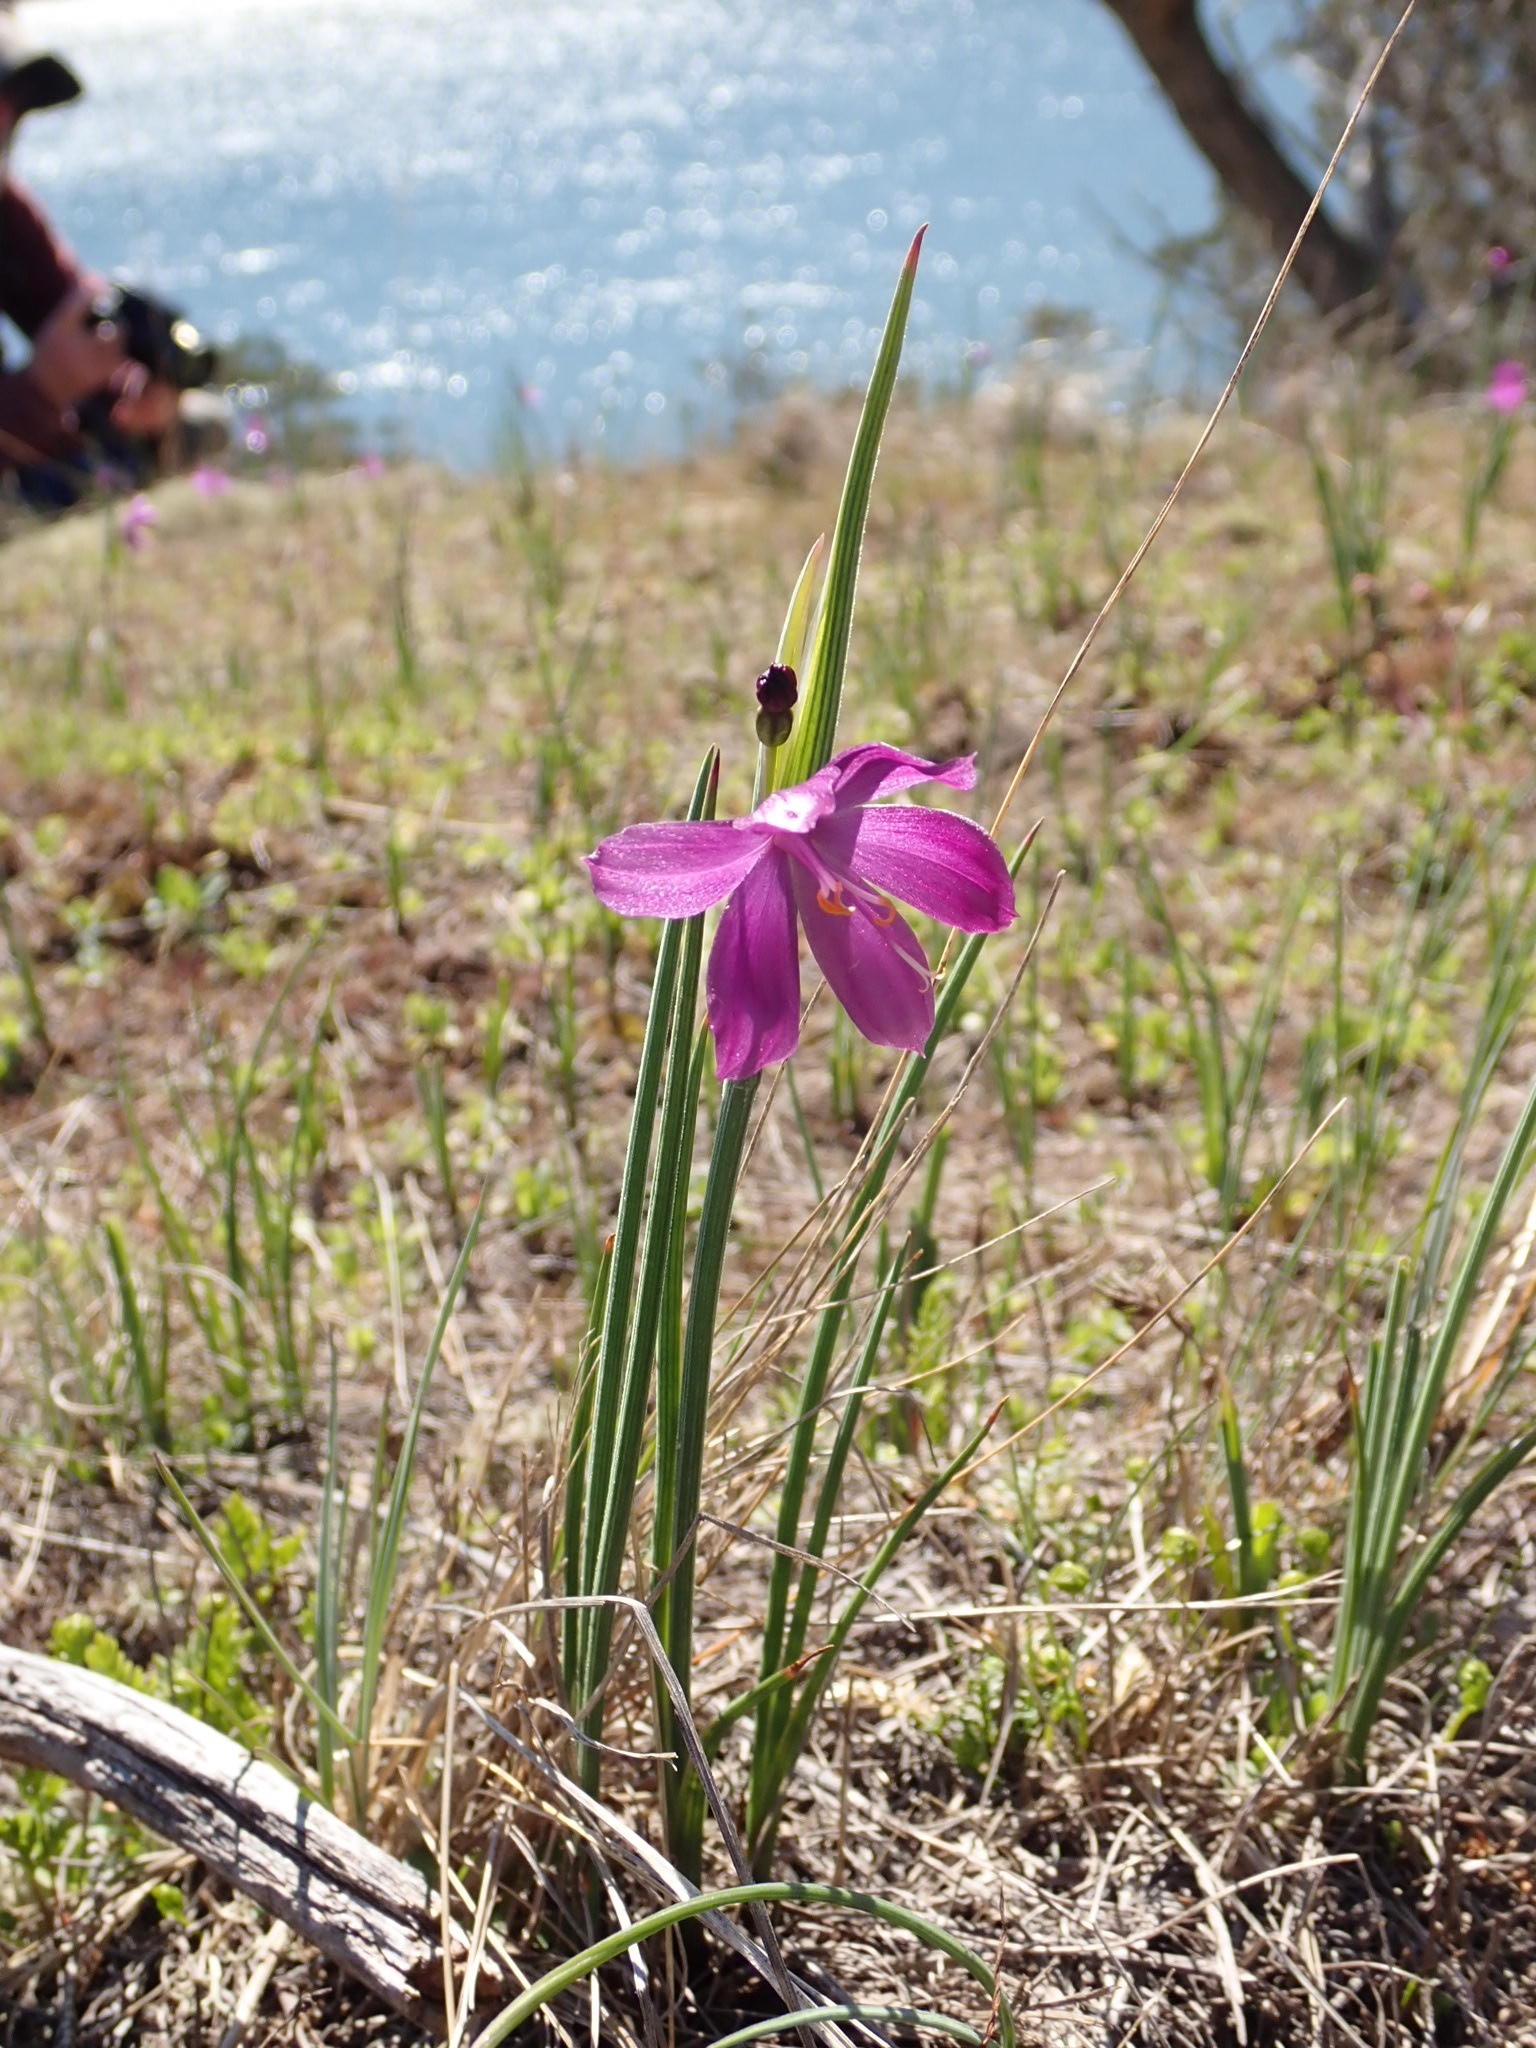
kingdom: Plantae
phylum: Tracheophyta
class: Liliopsida
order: Asparagales
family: Iridaceae
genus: Olsynium
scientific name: Olsynium douglasii
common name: Douglas' grasswidow
